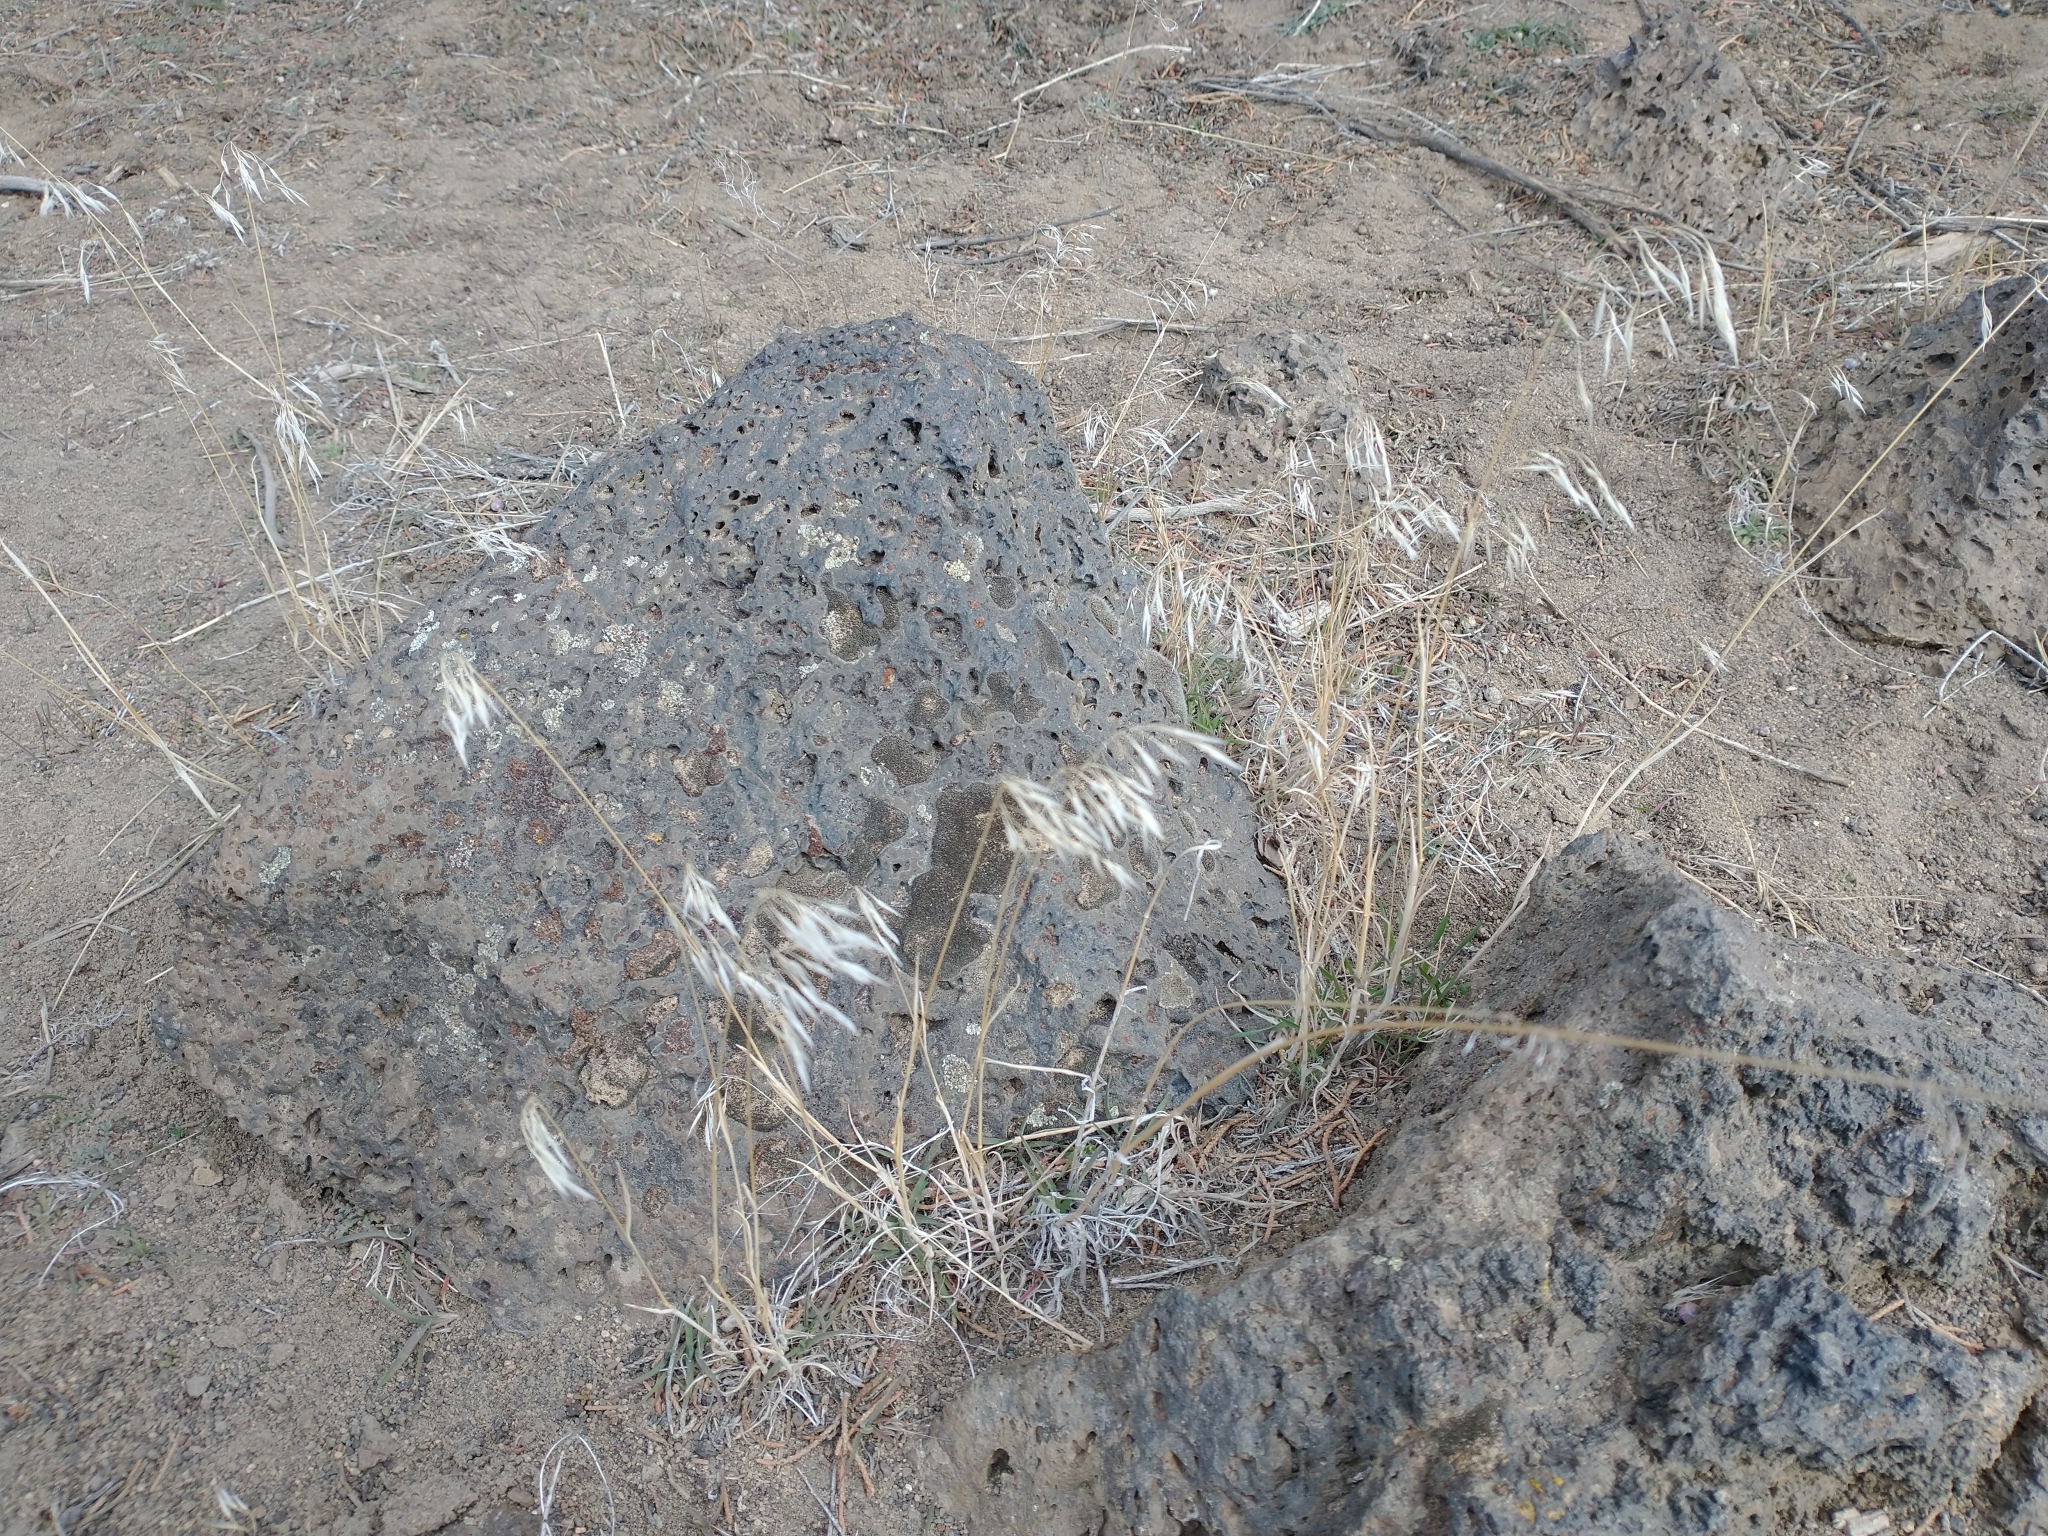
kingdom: Plantae
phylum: Tracheophyta
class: Liliopsida
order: Poales
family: Poaceae
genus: Bromus
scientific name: Bromus tectorum
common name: Cheatgrass
